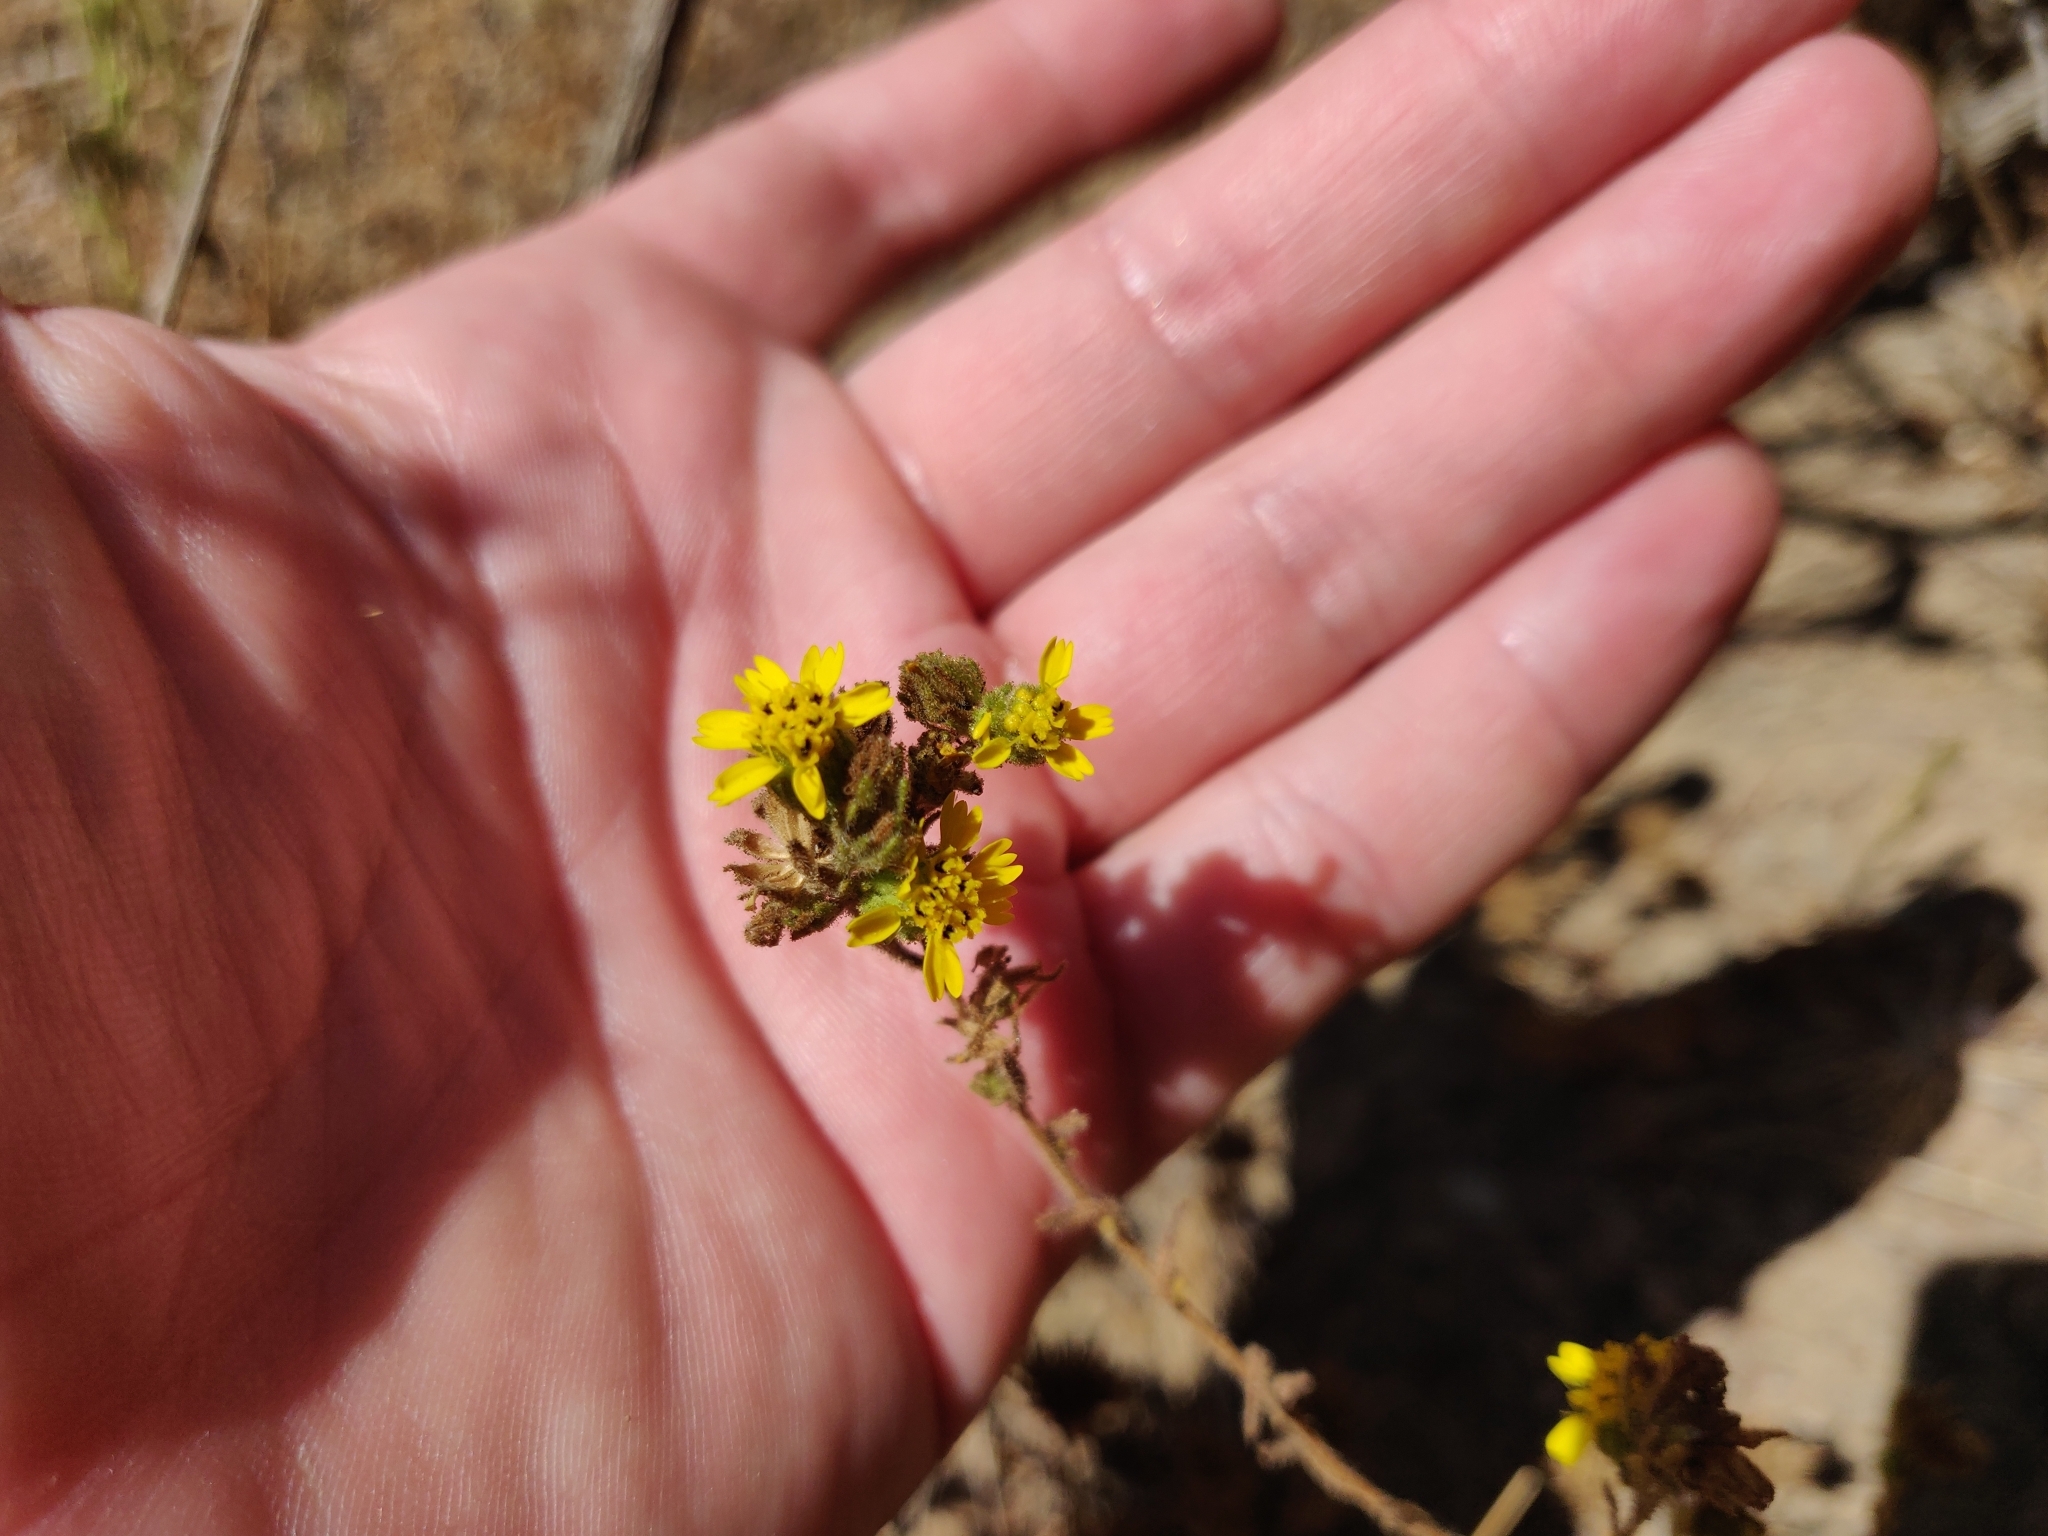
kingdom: Plantae
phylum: Tracheophyta
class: Magnoliopsida
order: Asterales
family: Asteraceae
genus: Deinandra
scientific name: Deinandra corymbosa
